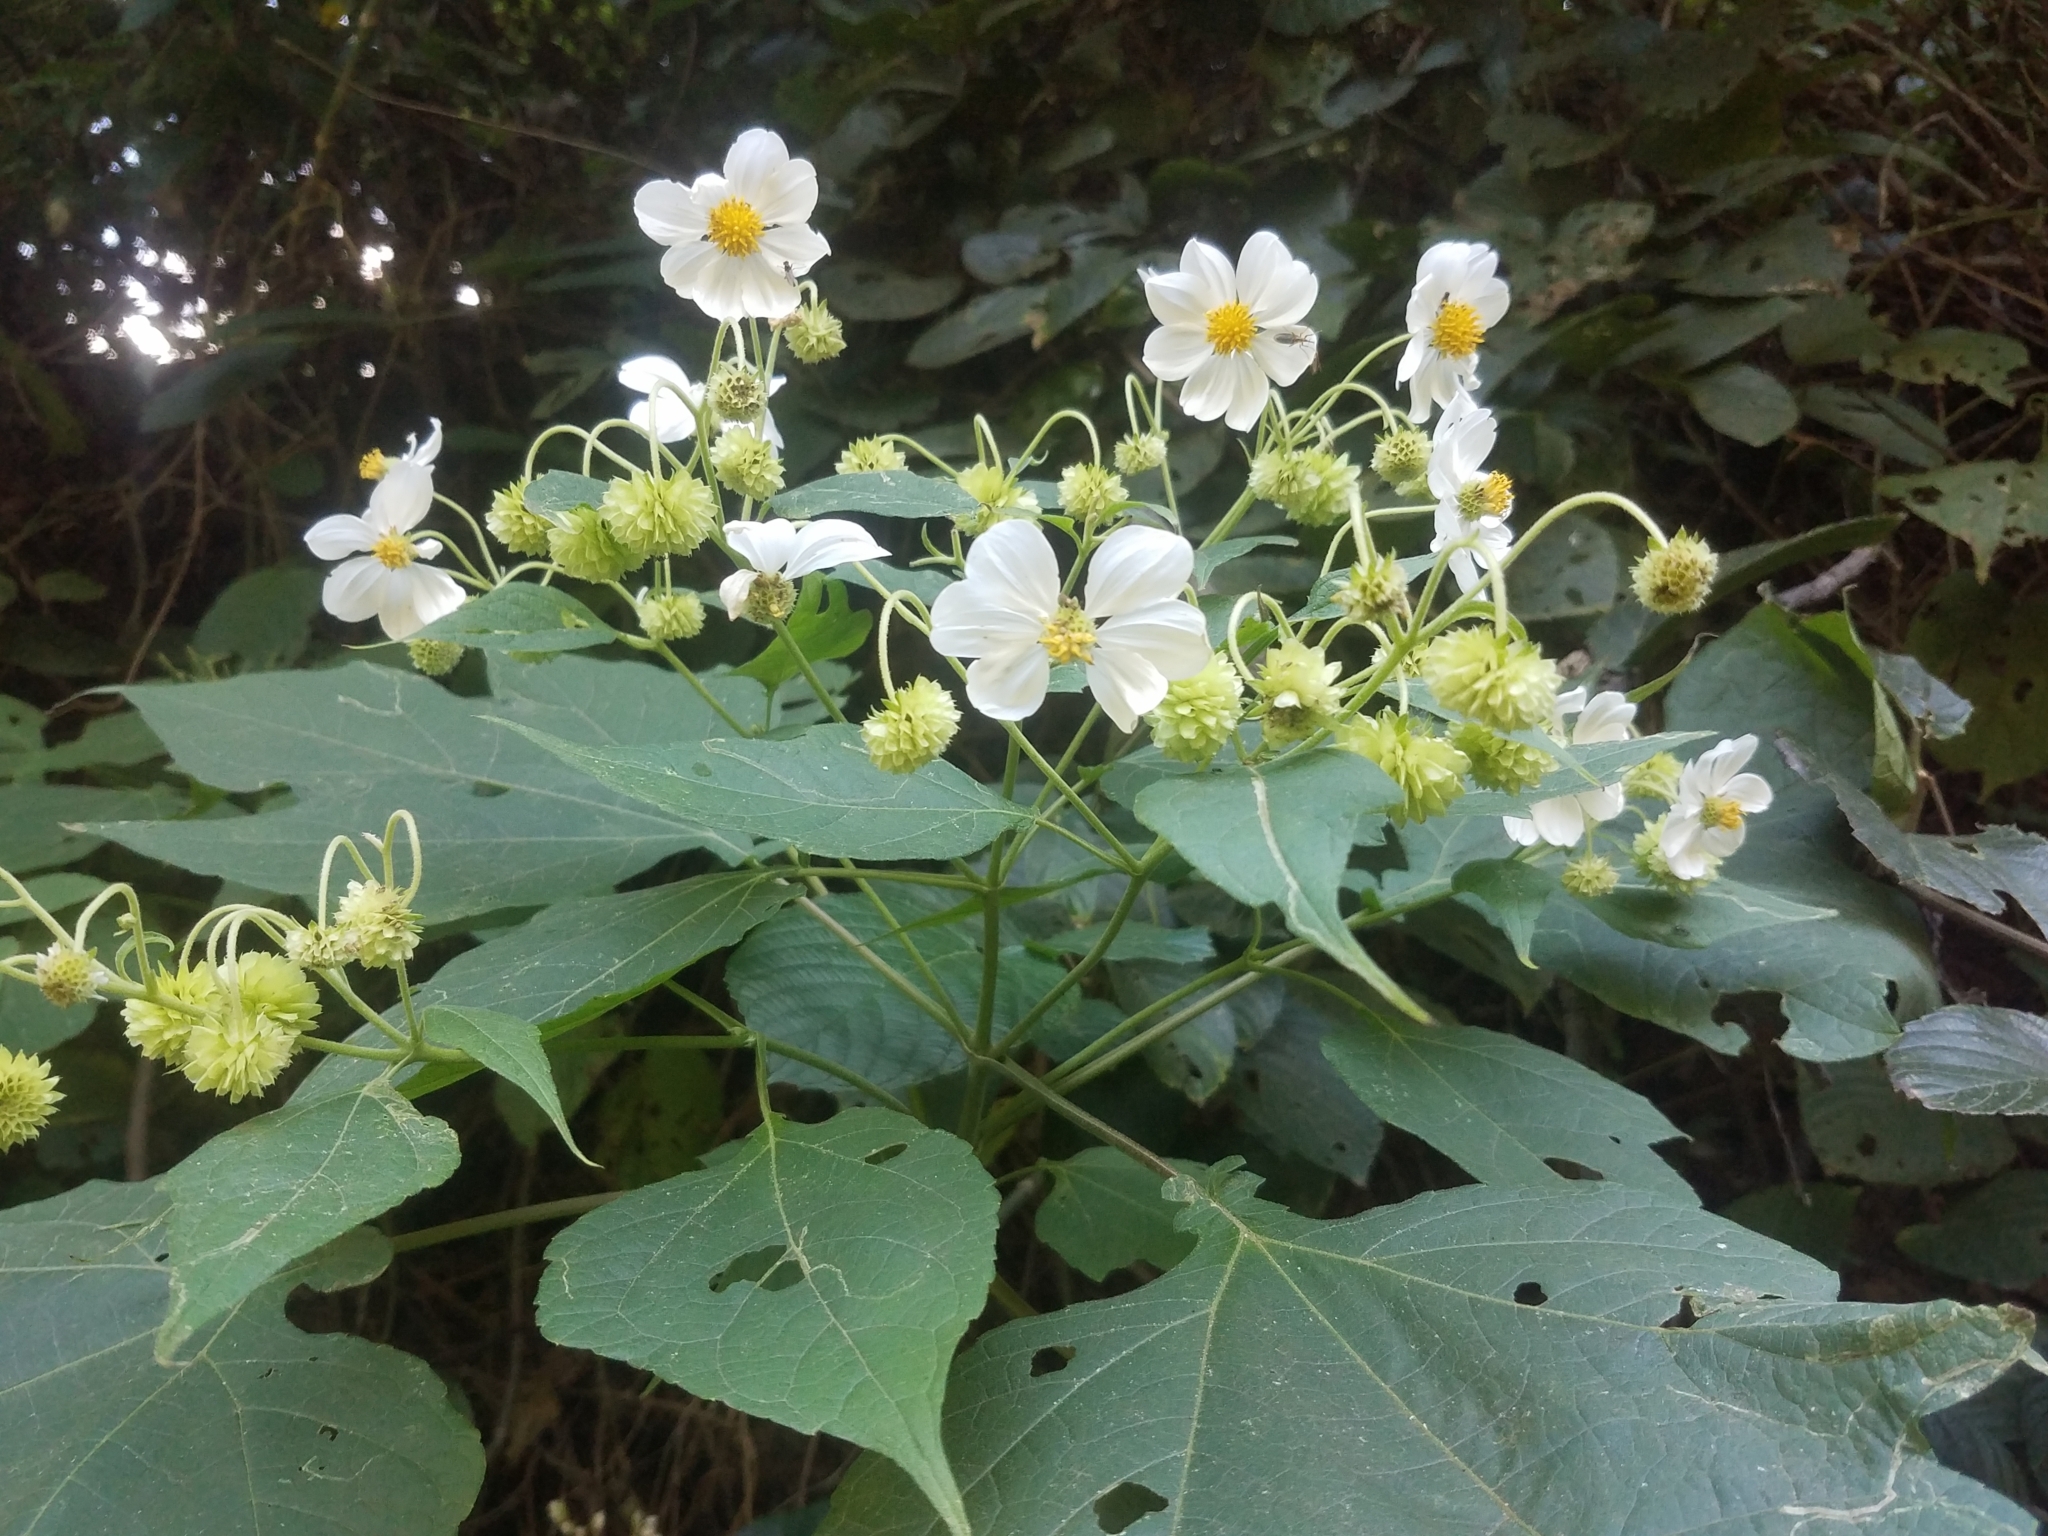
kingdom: Plantae
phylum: Tracheophyta
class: Magnoliopsida
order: Asterales
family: Asteraceae
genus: Montanoa
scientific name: Montanoa hibiscifolia
